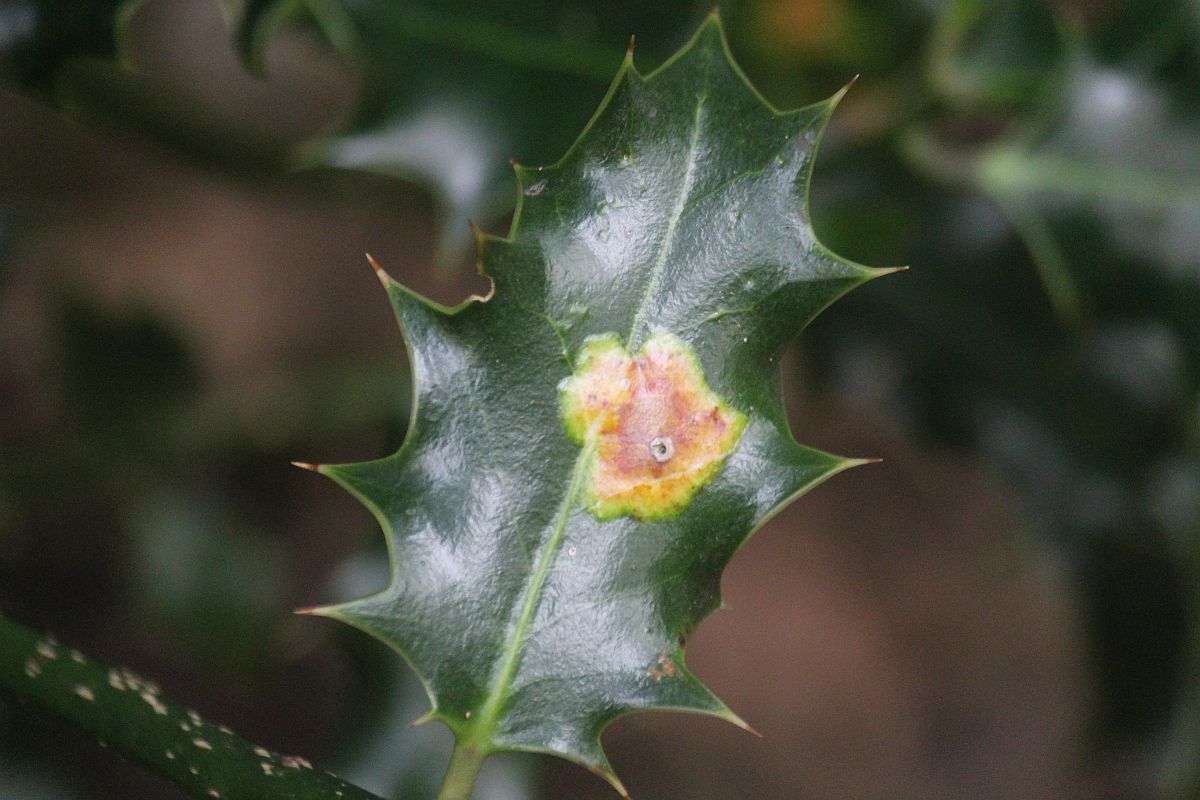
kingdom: Animalia
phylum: Arthropoda
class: Insecta
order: Diptera
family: Agromyzidae
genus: Phytomyza
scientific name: Phytomyza ilicis
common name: Holly leafminer
